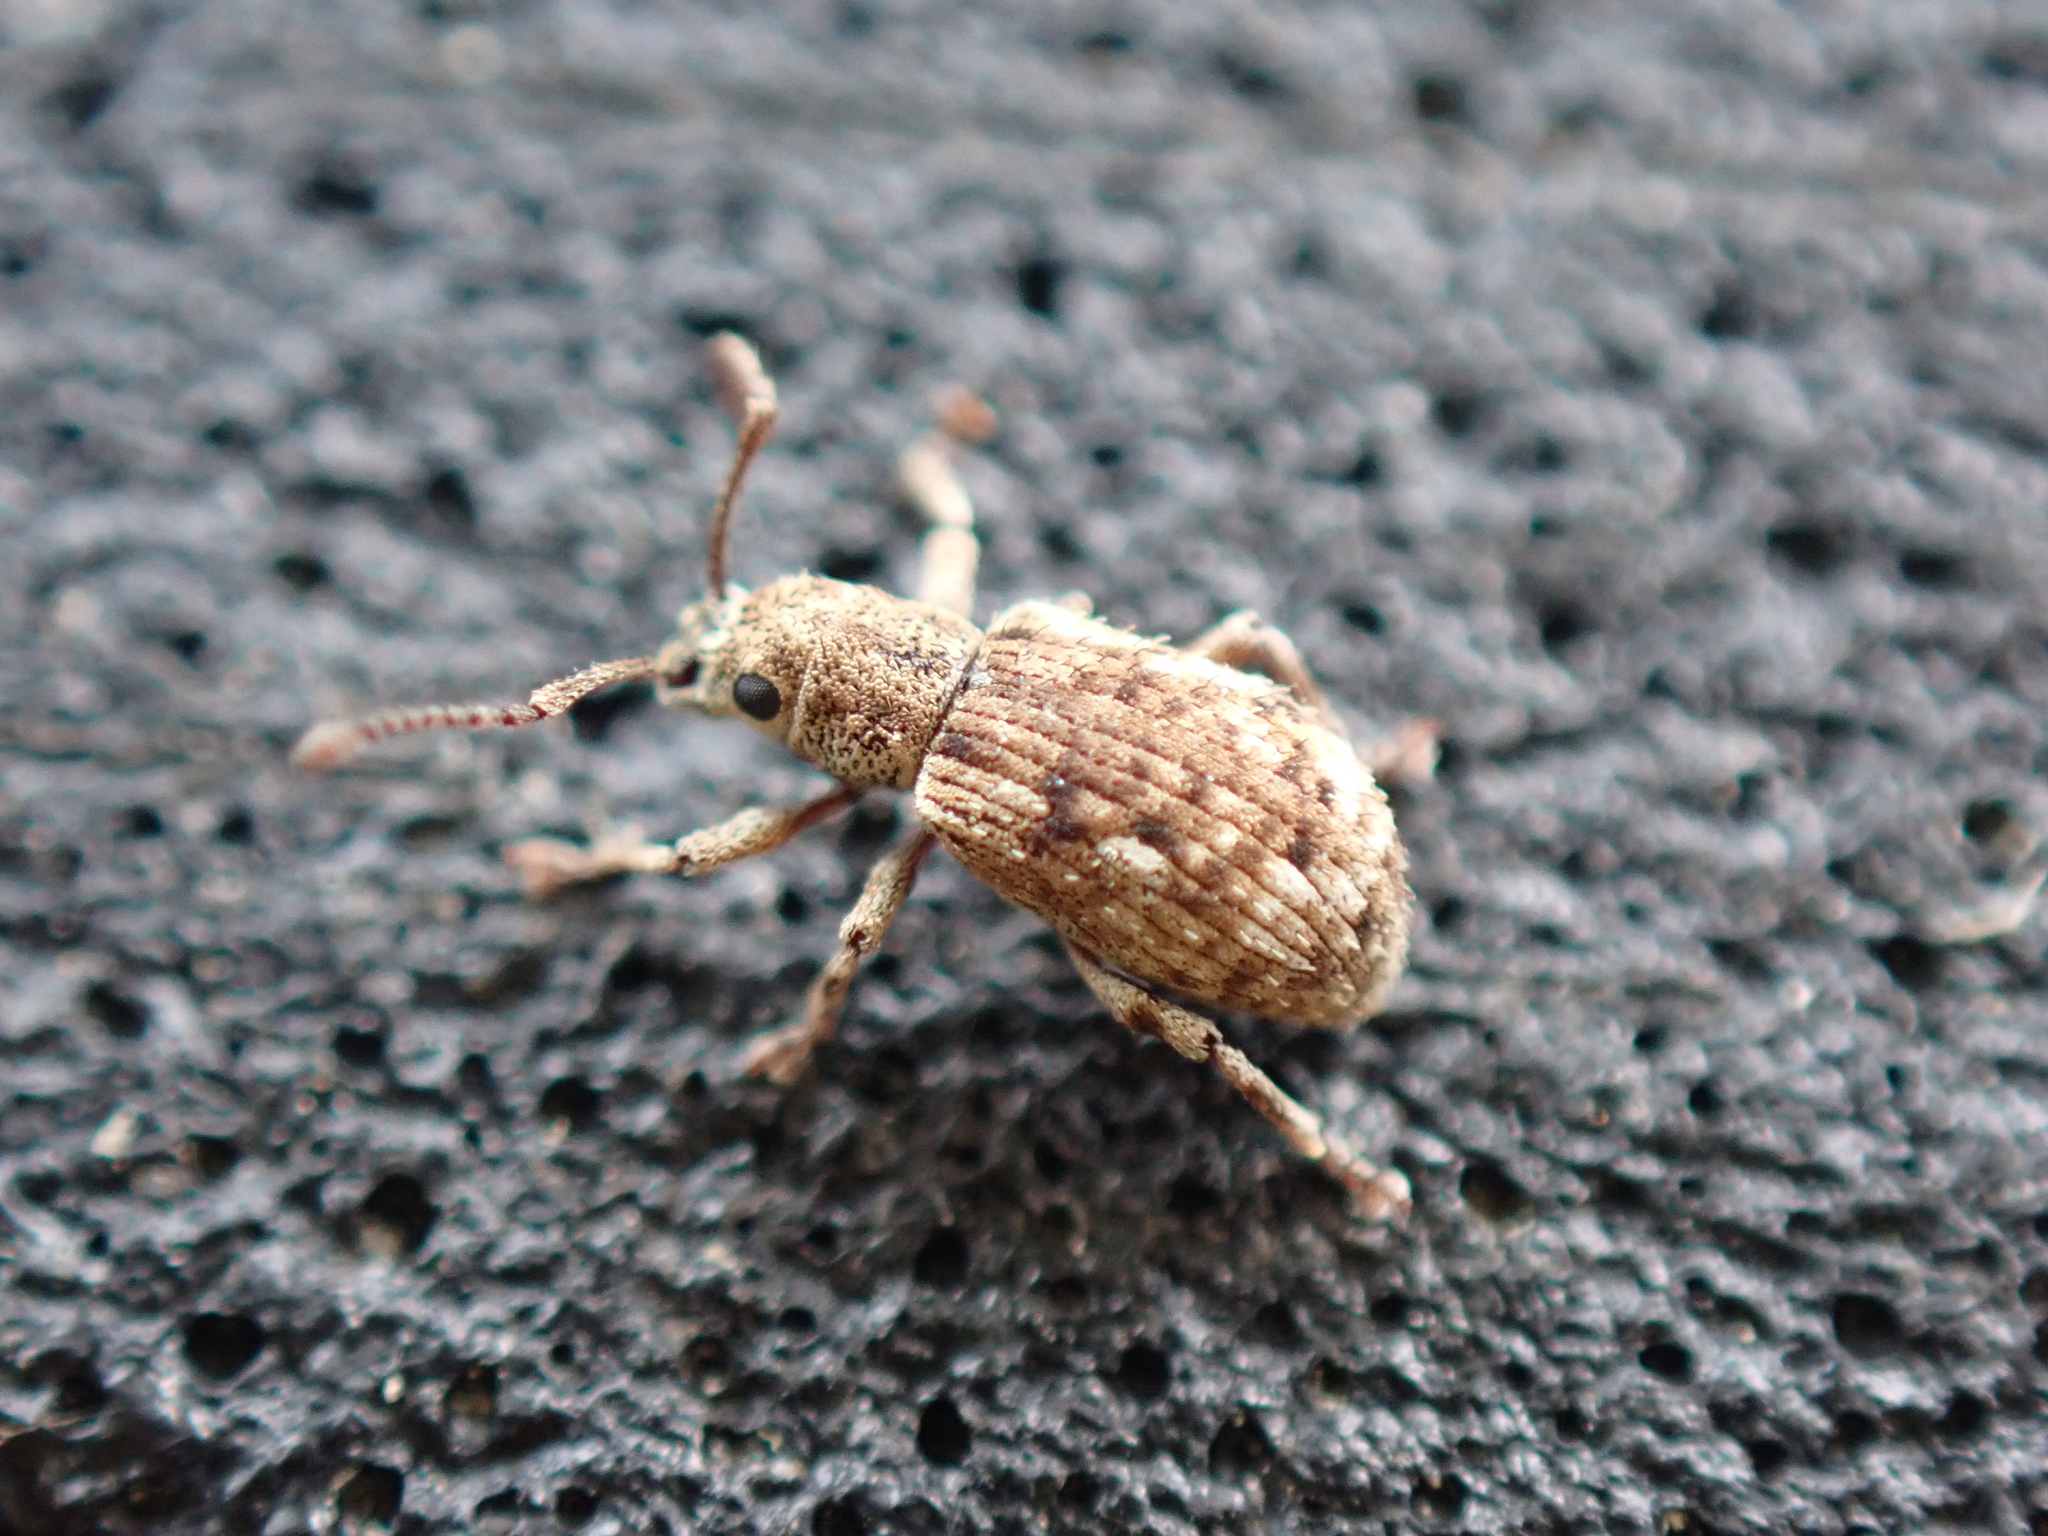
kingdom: Animalia
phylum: Arthropoda
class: Insecta
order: Coleoptera
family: Curculionidae
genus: Pseudoedophrys
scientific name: Pseudoedophrys hilleri
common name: Weevil
